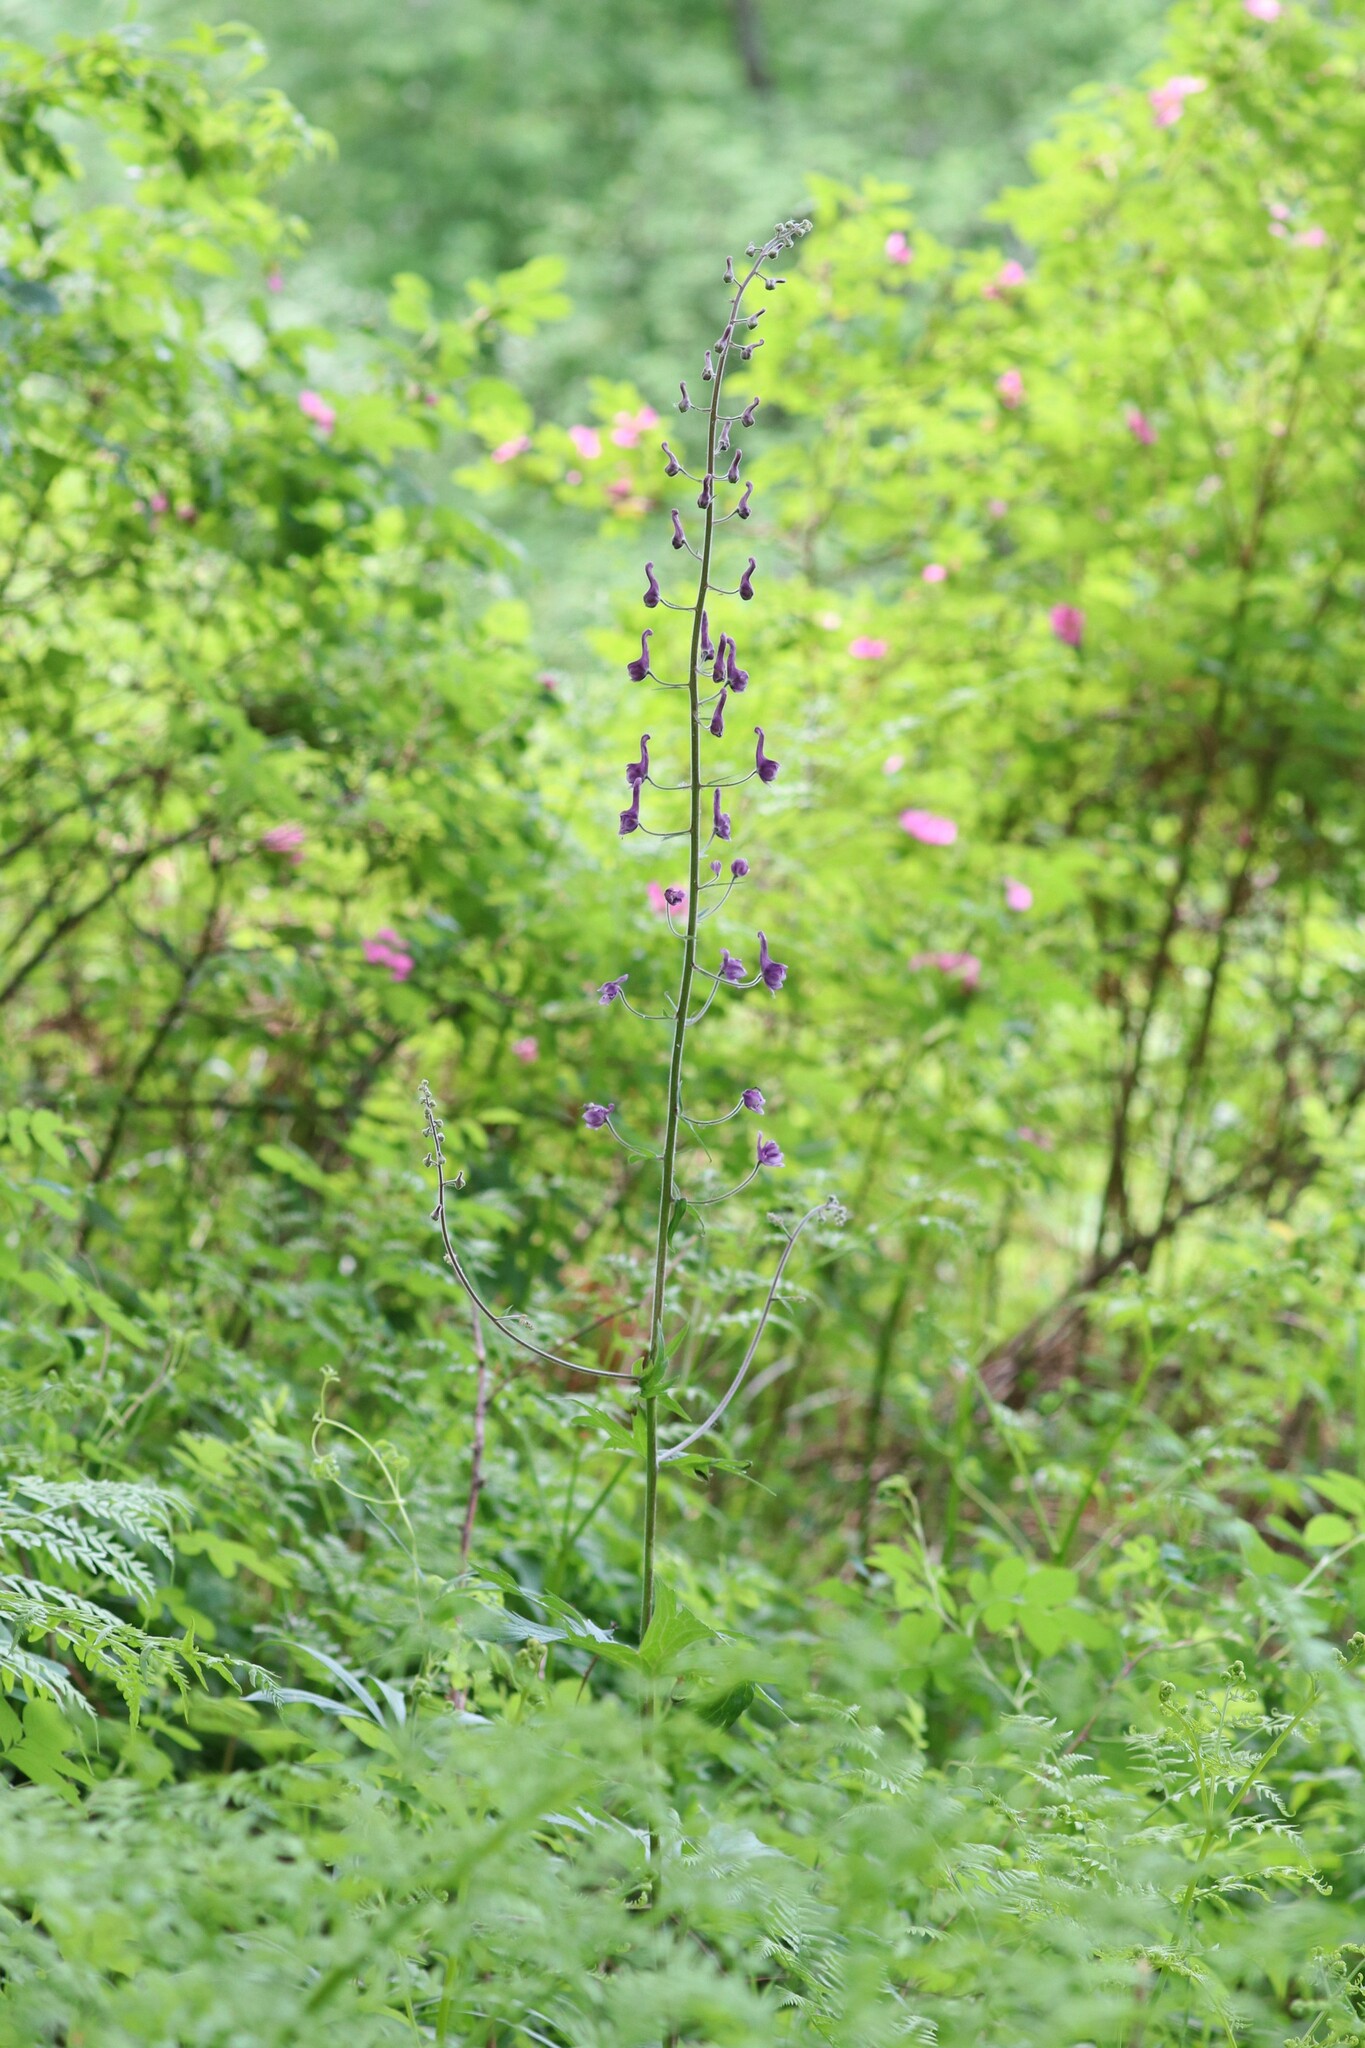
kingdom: Plantae
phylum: Tracheophyta
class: Magnoliopsida
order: Ranunculales
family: Ranunculaceae
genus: Aconitum
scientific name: Aconitum septentrionale
